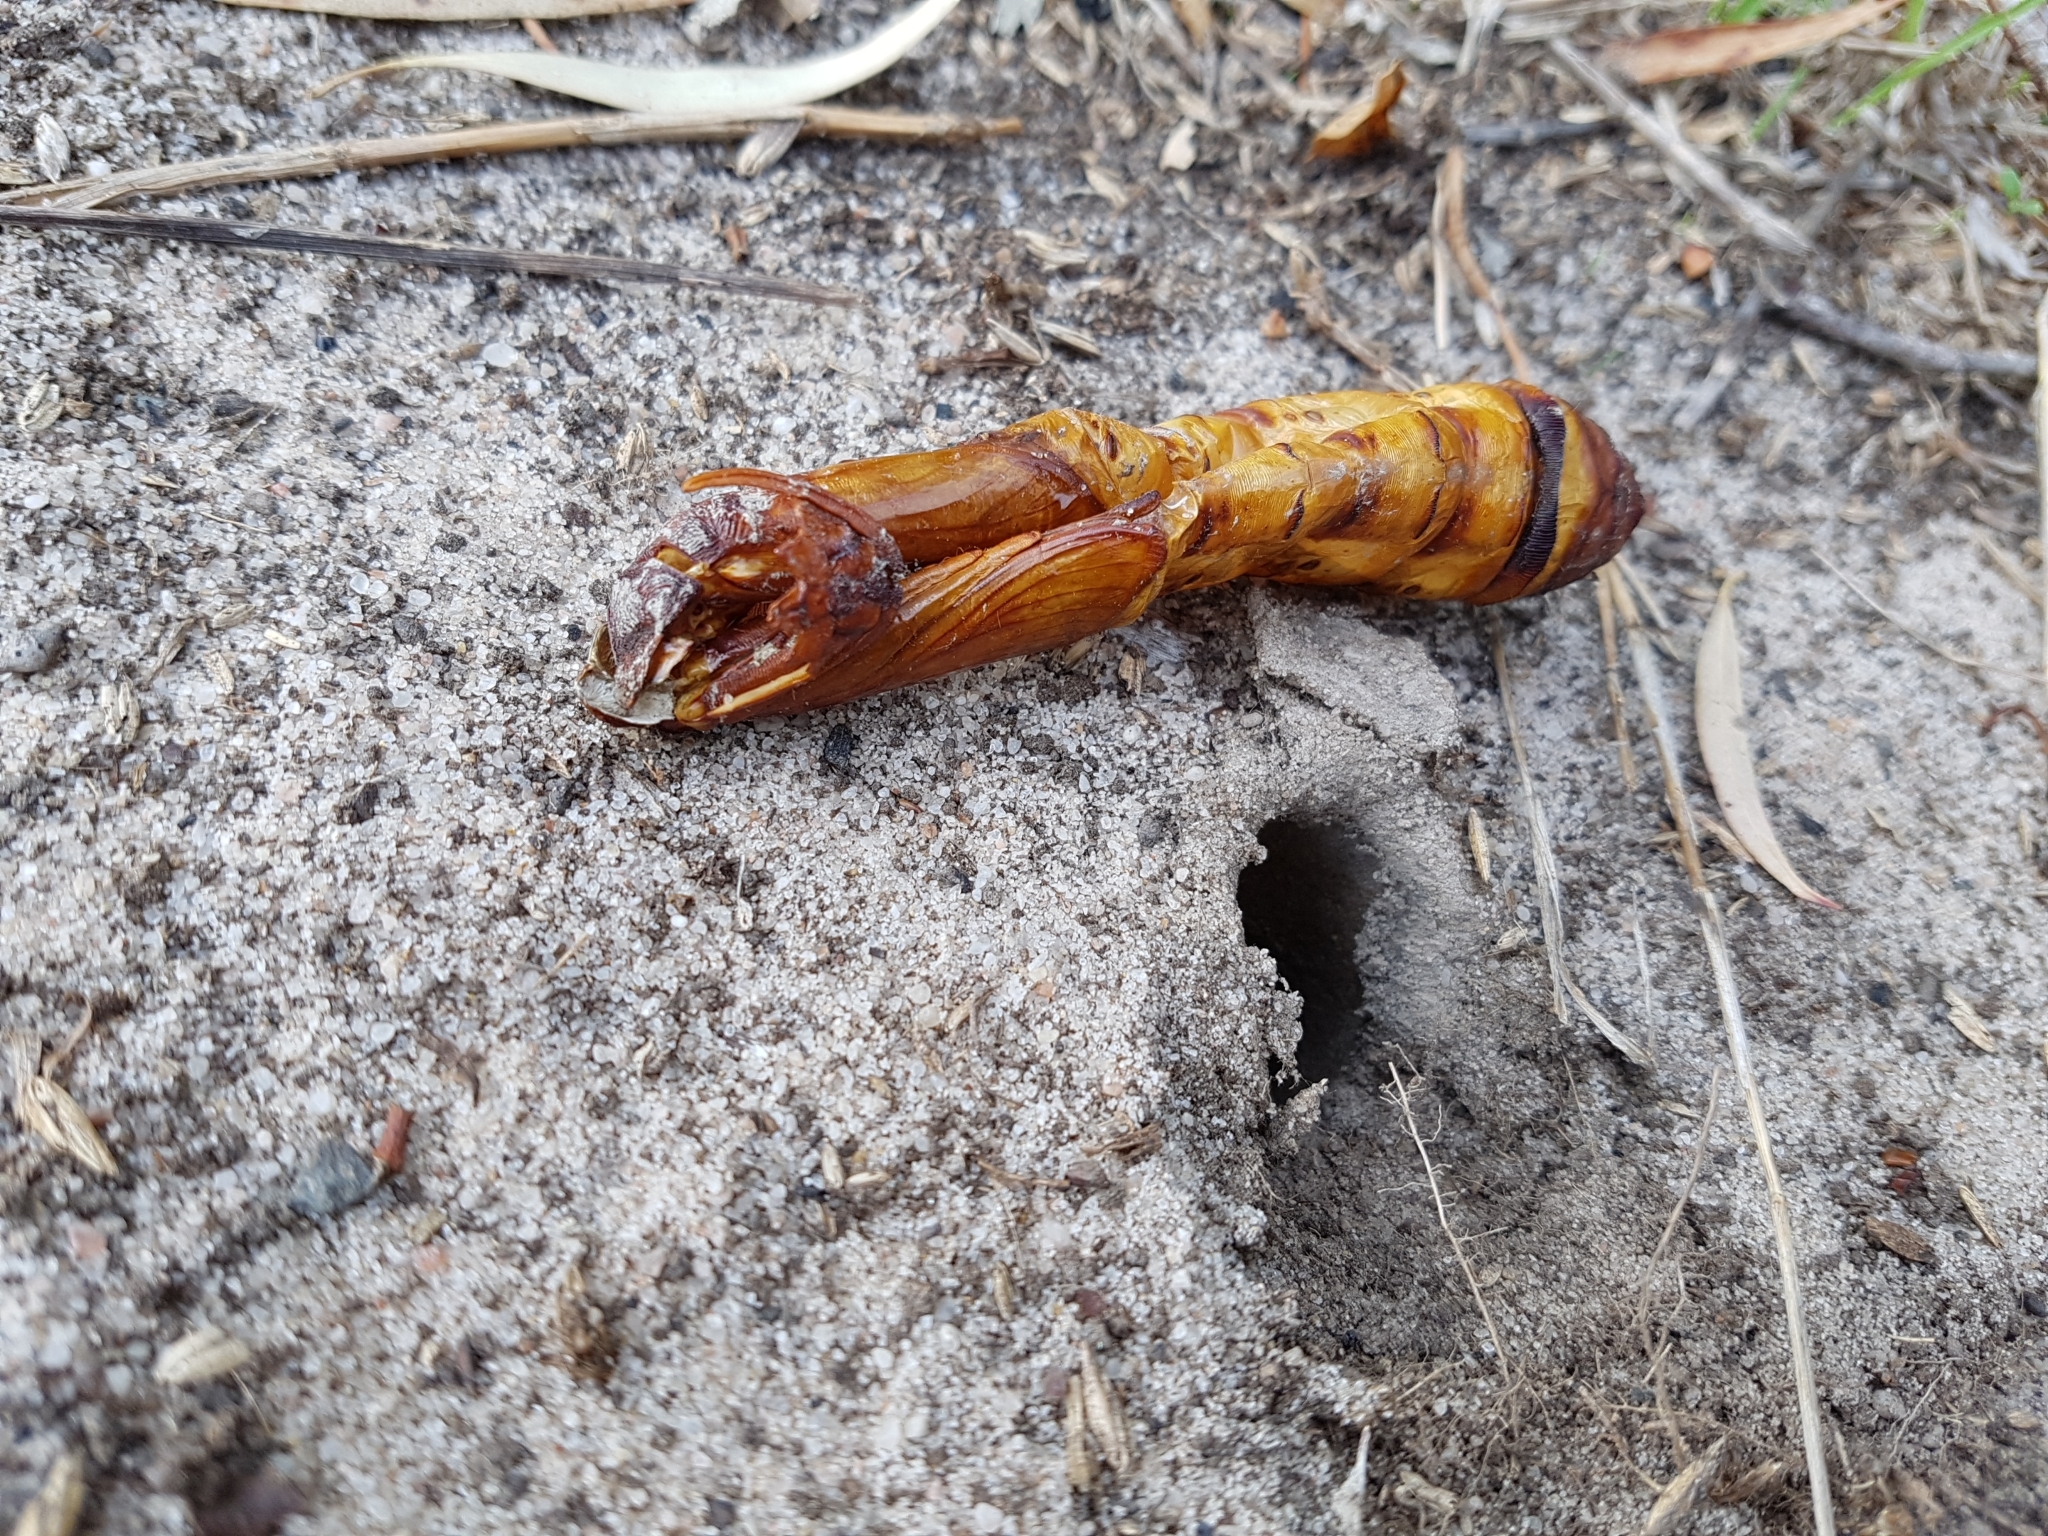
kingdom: Animalia
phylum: Arthropoda
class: Insecta
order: Lepidoptera
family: Hepialidae
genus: Abantiades
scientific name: Abantiades atripalpis
